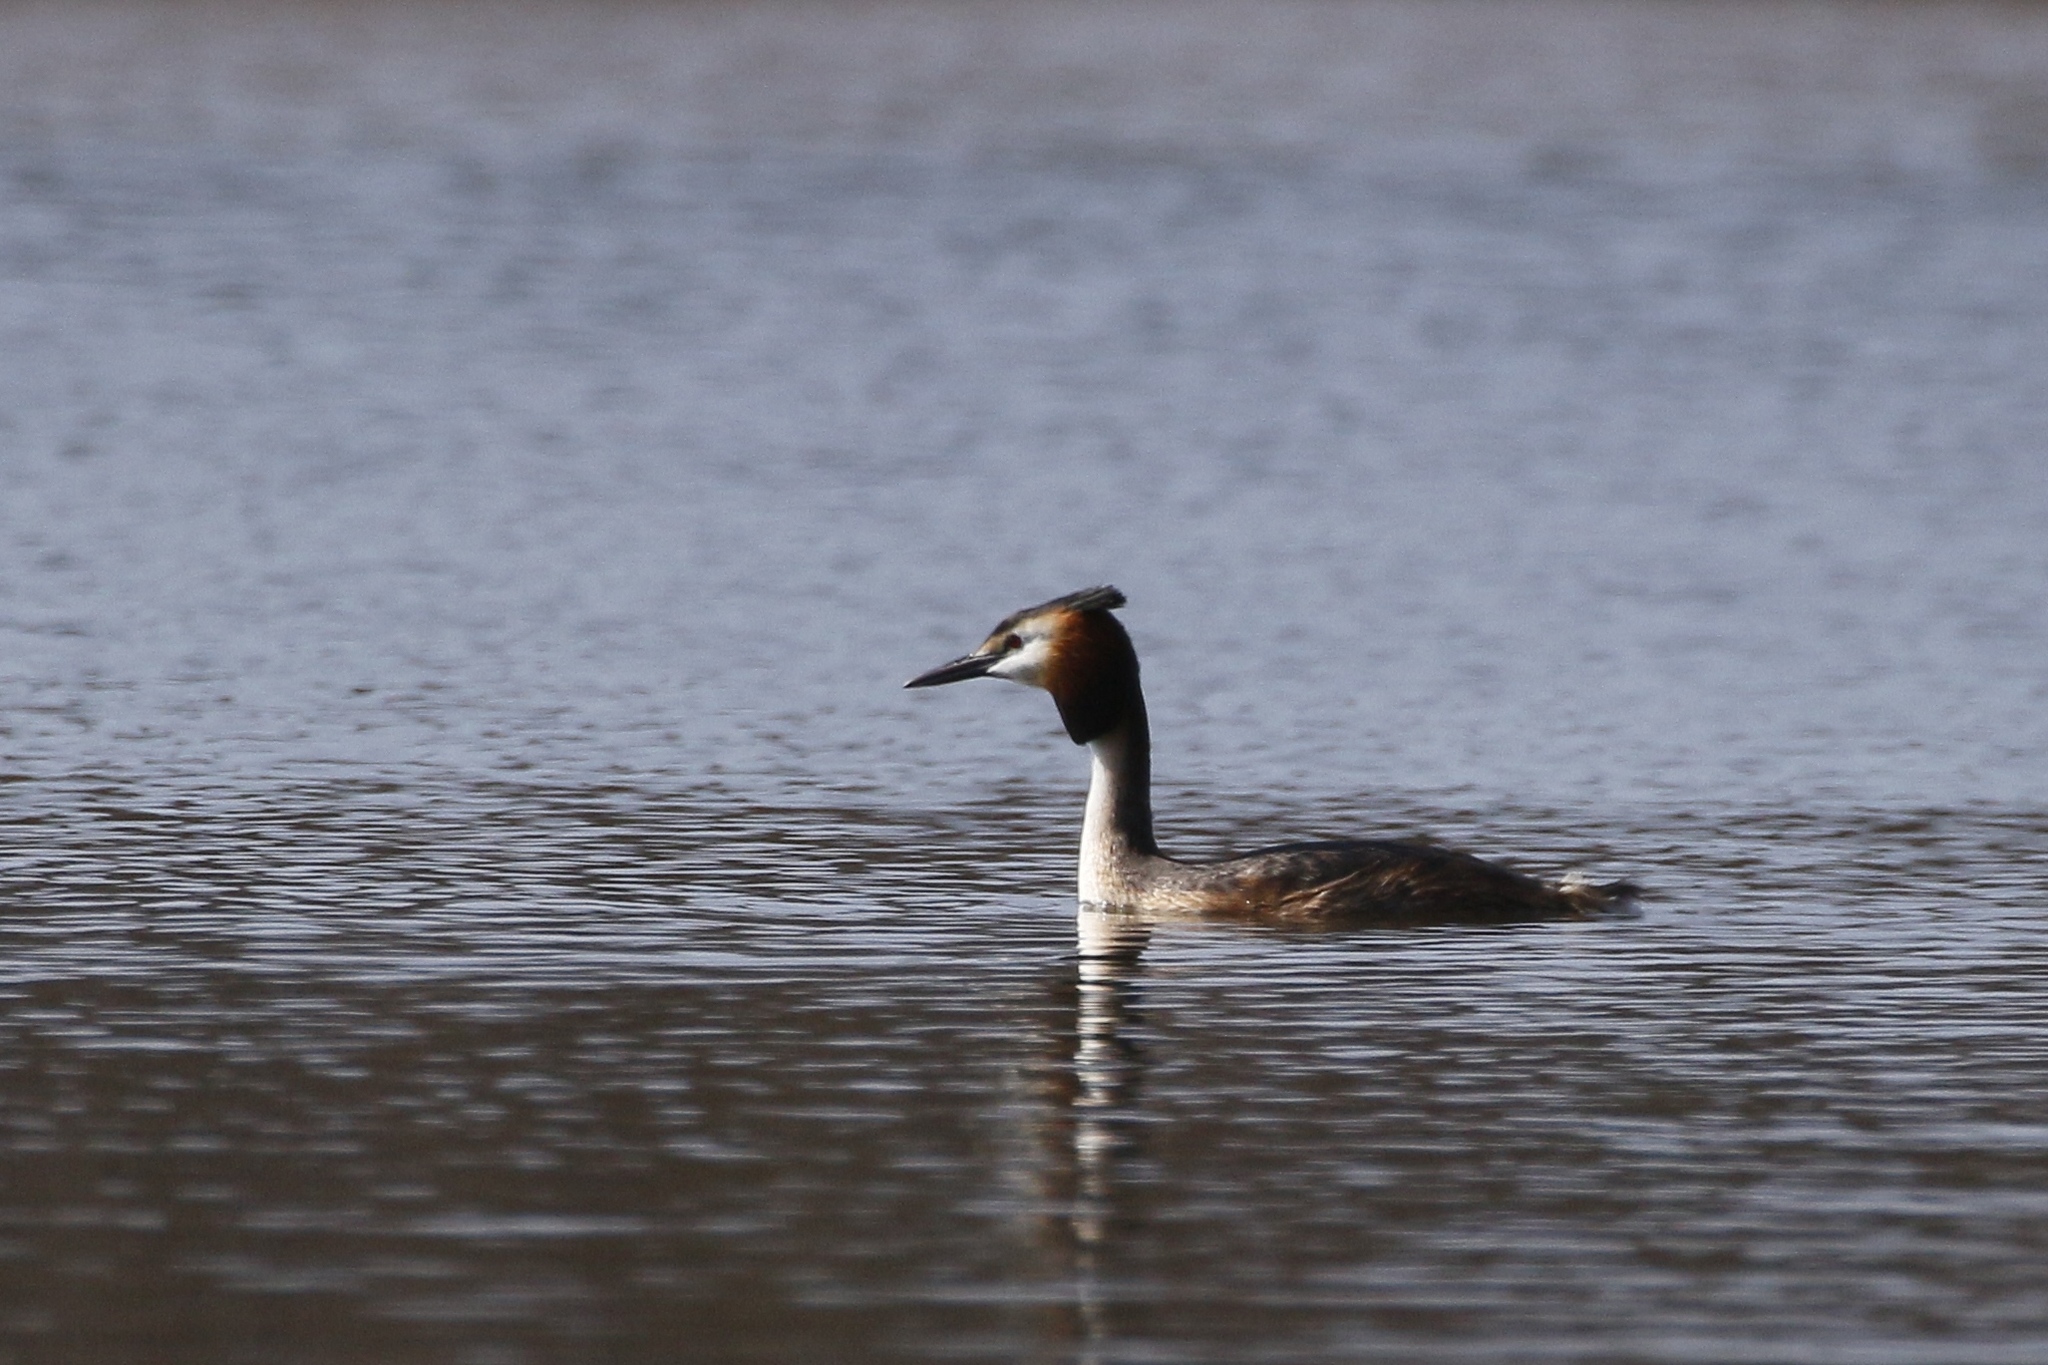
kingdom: Animalia
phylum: Chordata
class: Aves
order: Podicipediformes
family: Podicipedidae
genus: Podiceps
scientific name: Podiceps cristatus
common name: Great crested grebe
